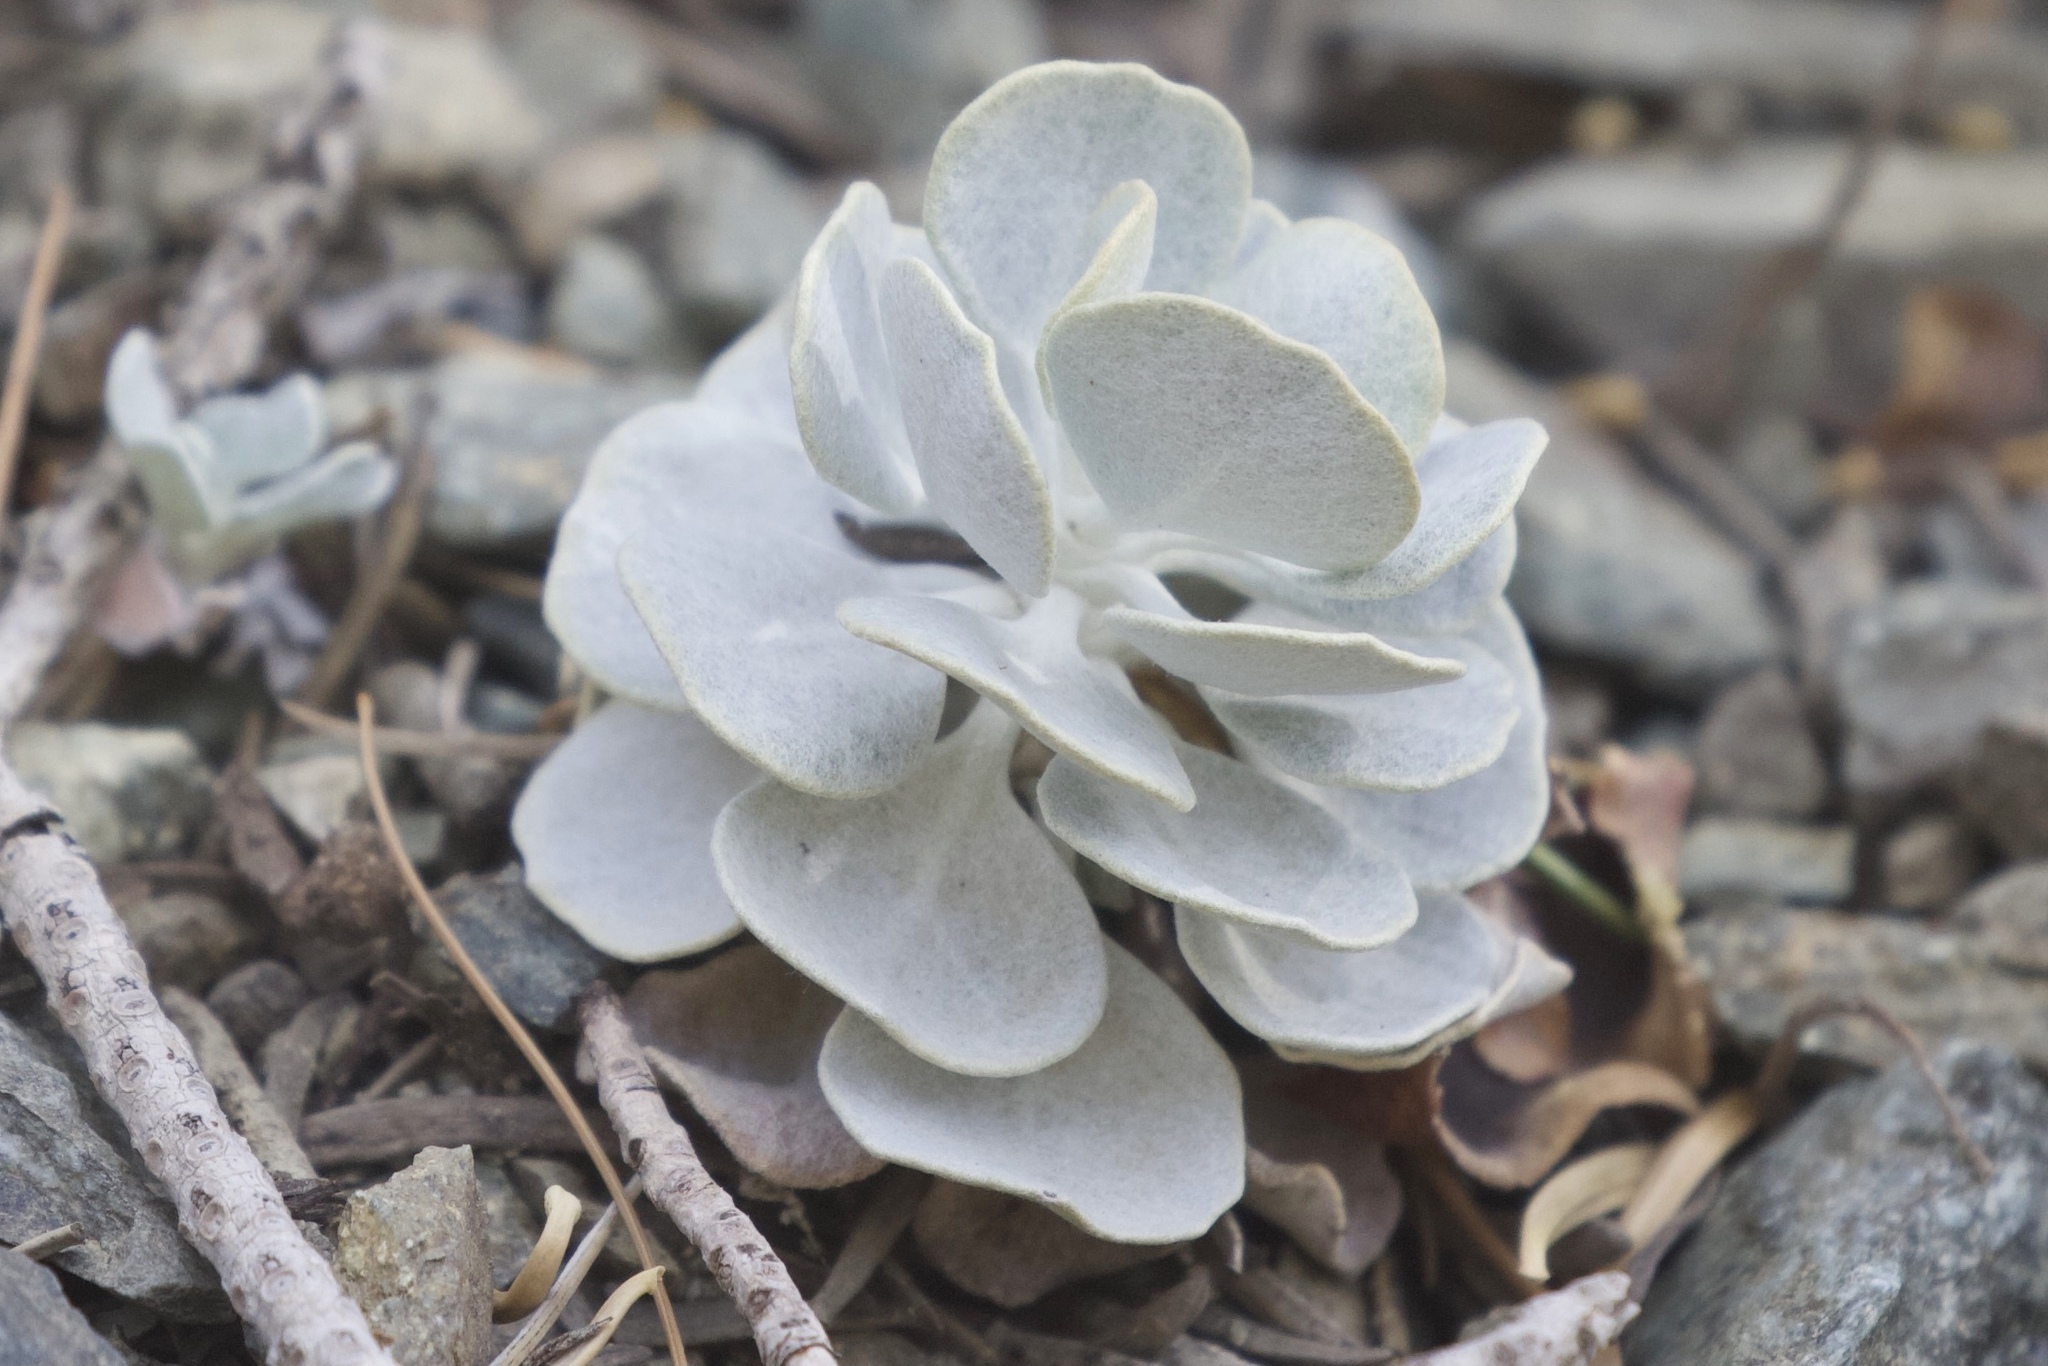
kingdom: Plantae
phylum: Tracheophyta
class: Magnoliopsida
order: Caryophyllales
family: Polygonaceae
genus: Eriogonum
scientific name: Eriogonum saxatile
